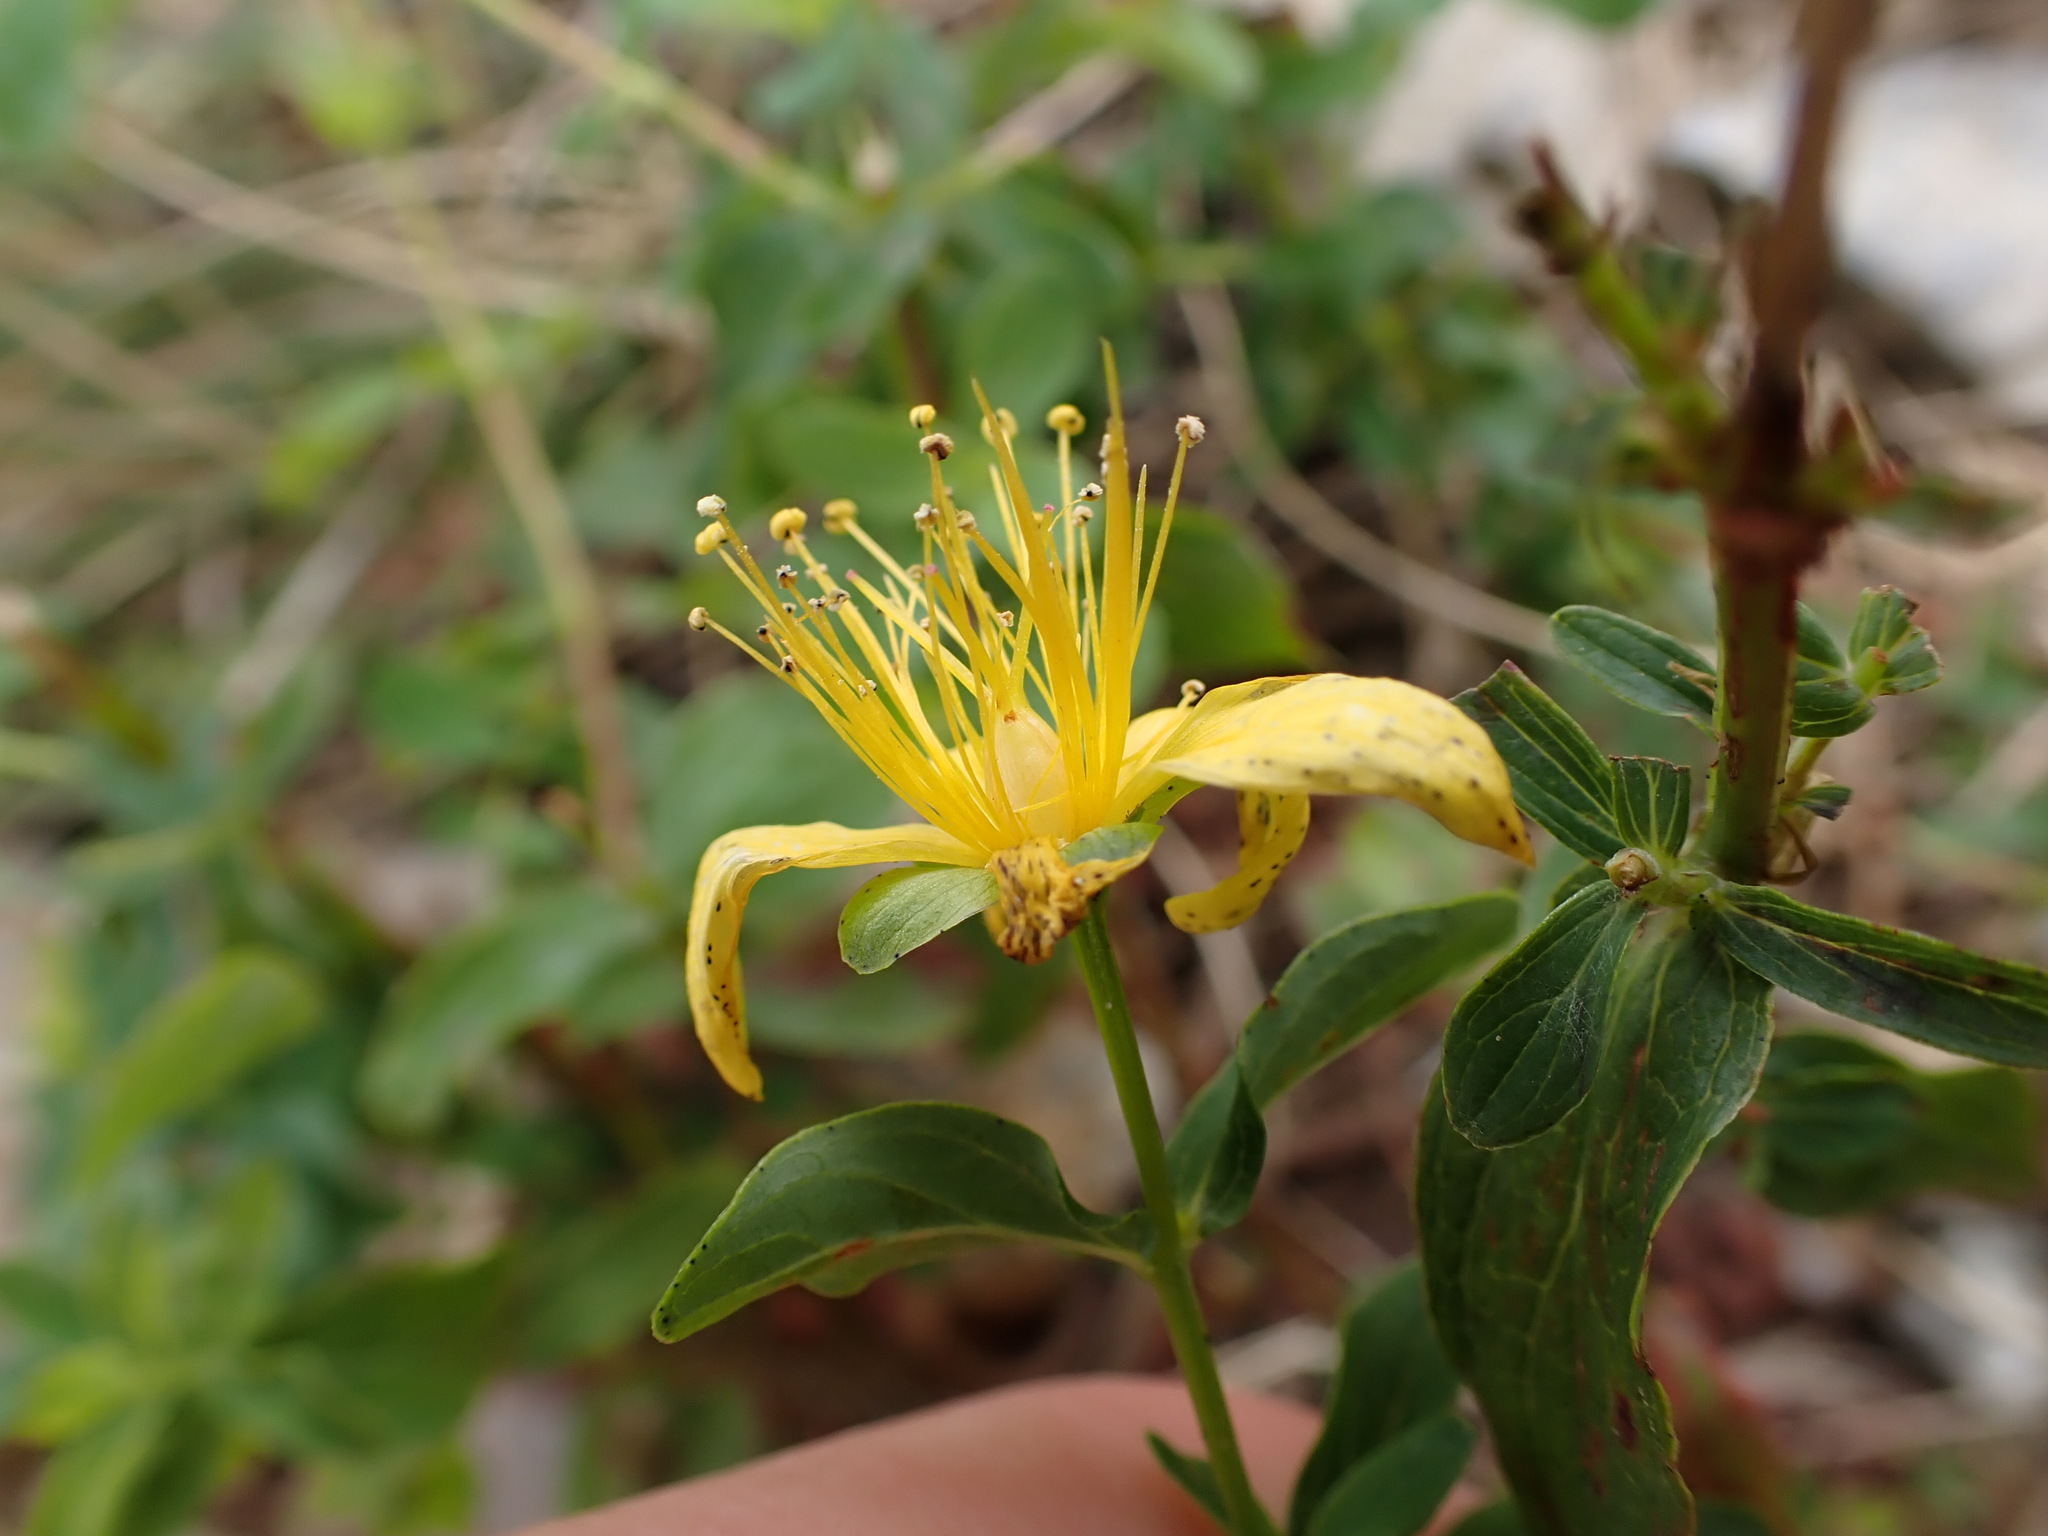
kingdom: Plantae
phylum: Tracheophyta
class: Magnoliopsida
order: Malpighiales
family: Hypericaceae
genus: Hypericum
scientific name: Hypericum maculatum
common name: Imperforate st. john's-wort
